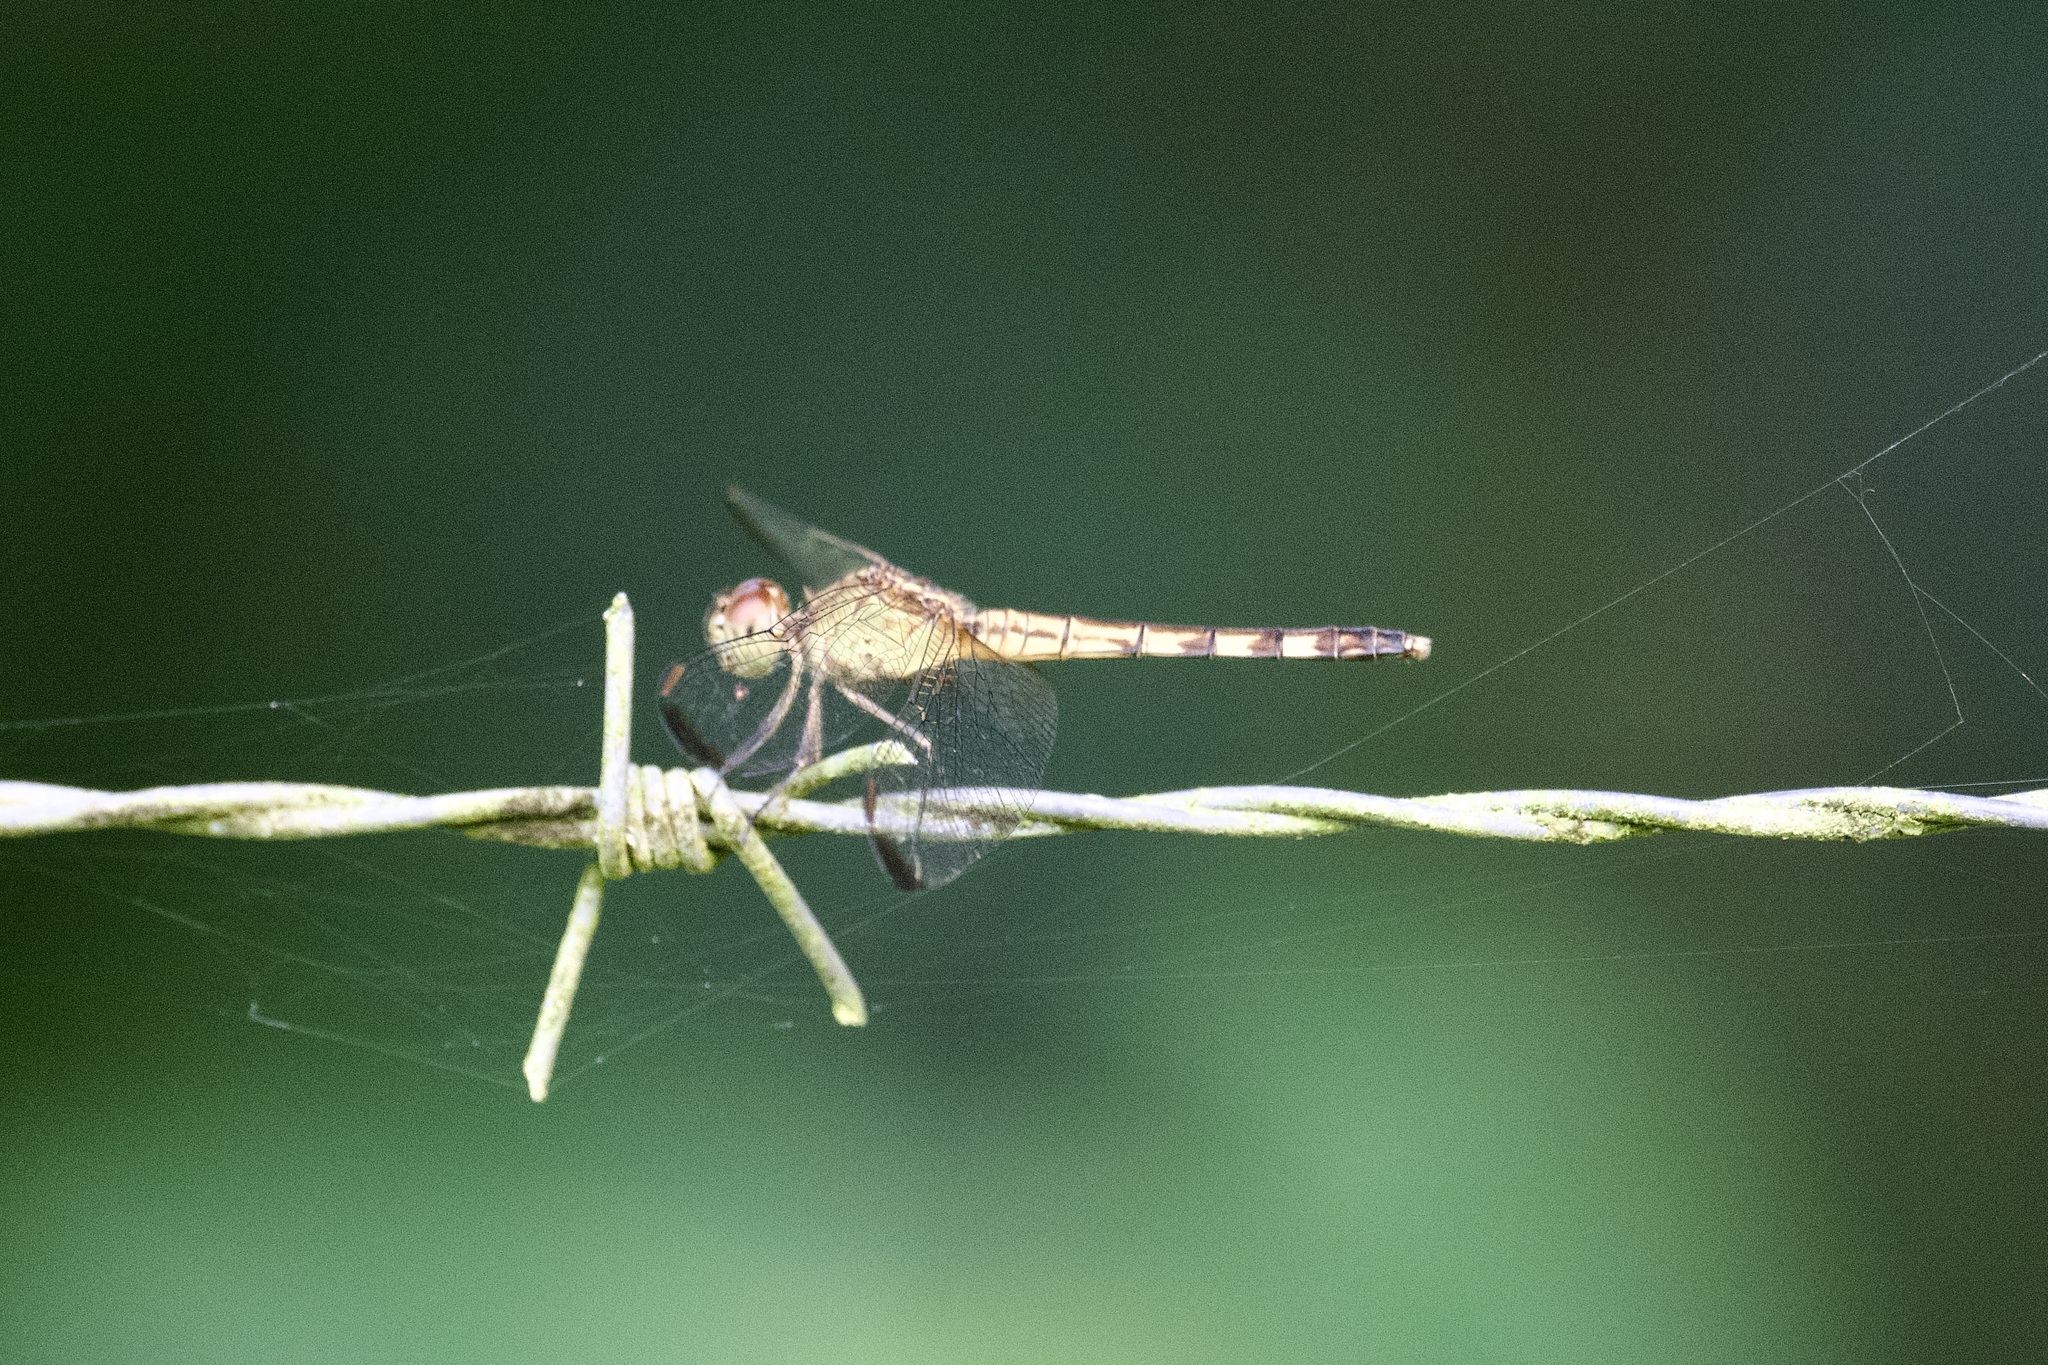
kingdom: Animalia
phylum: Arthropoda
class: Insecta
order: Odonata
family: Libellulidae
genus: Erythrodiplax
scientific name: Erythrodiplax umbrata
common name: Band-winged dragonlet
